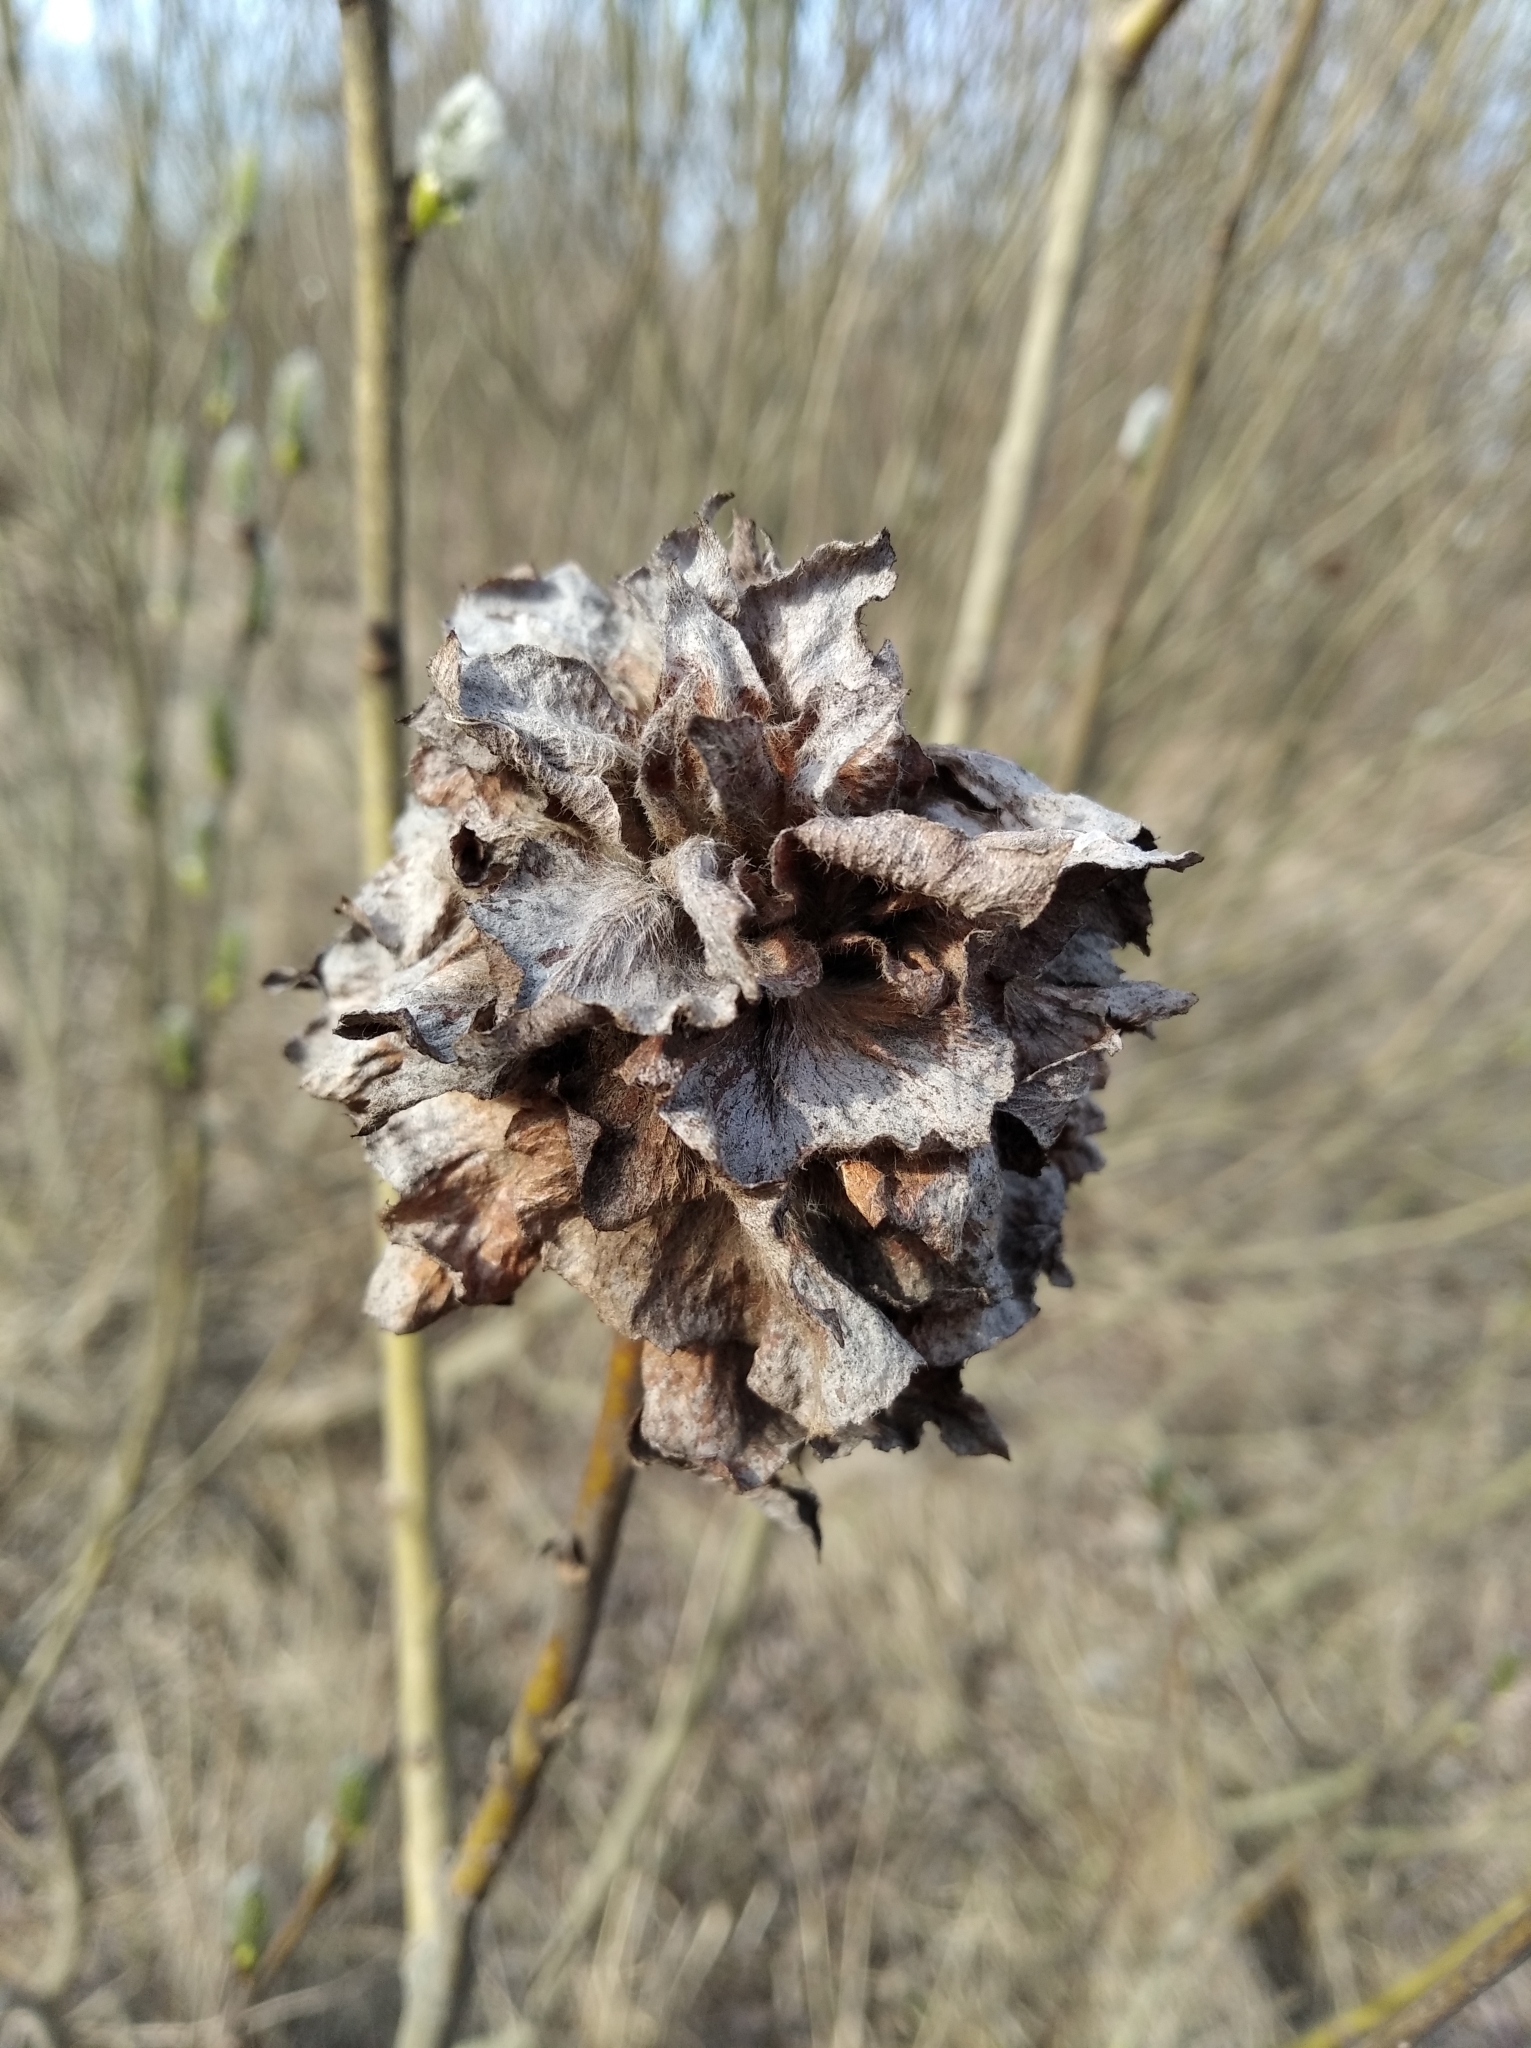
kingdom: Animalia
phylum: Arthropoda
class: Insecta
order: Diptera
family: Cecidomyiidae
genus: Rabdophaga
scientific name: Rabdophaga rosaria
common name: Willow rose gall midge
